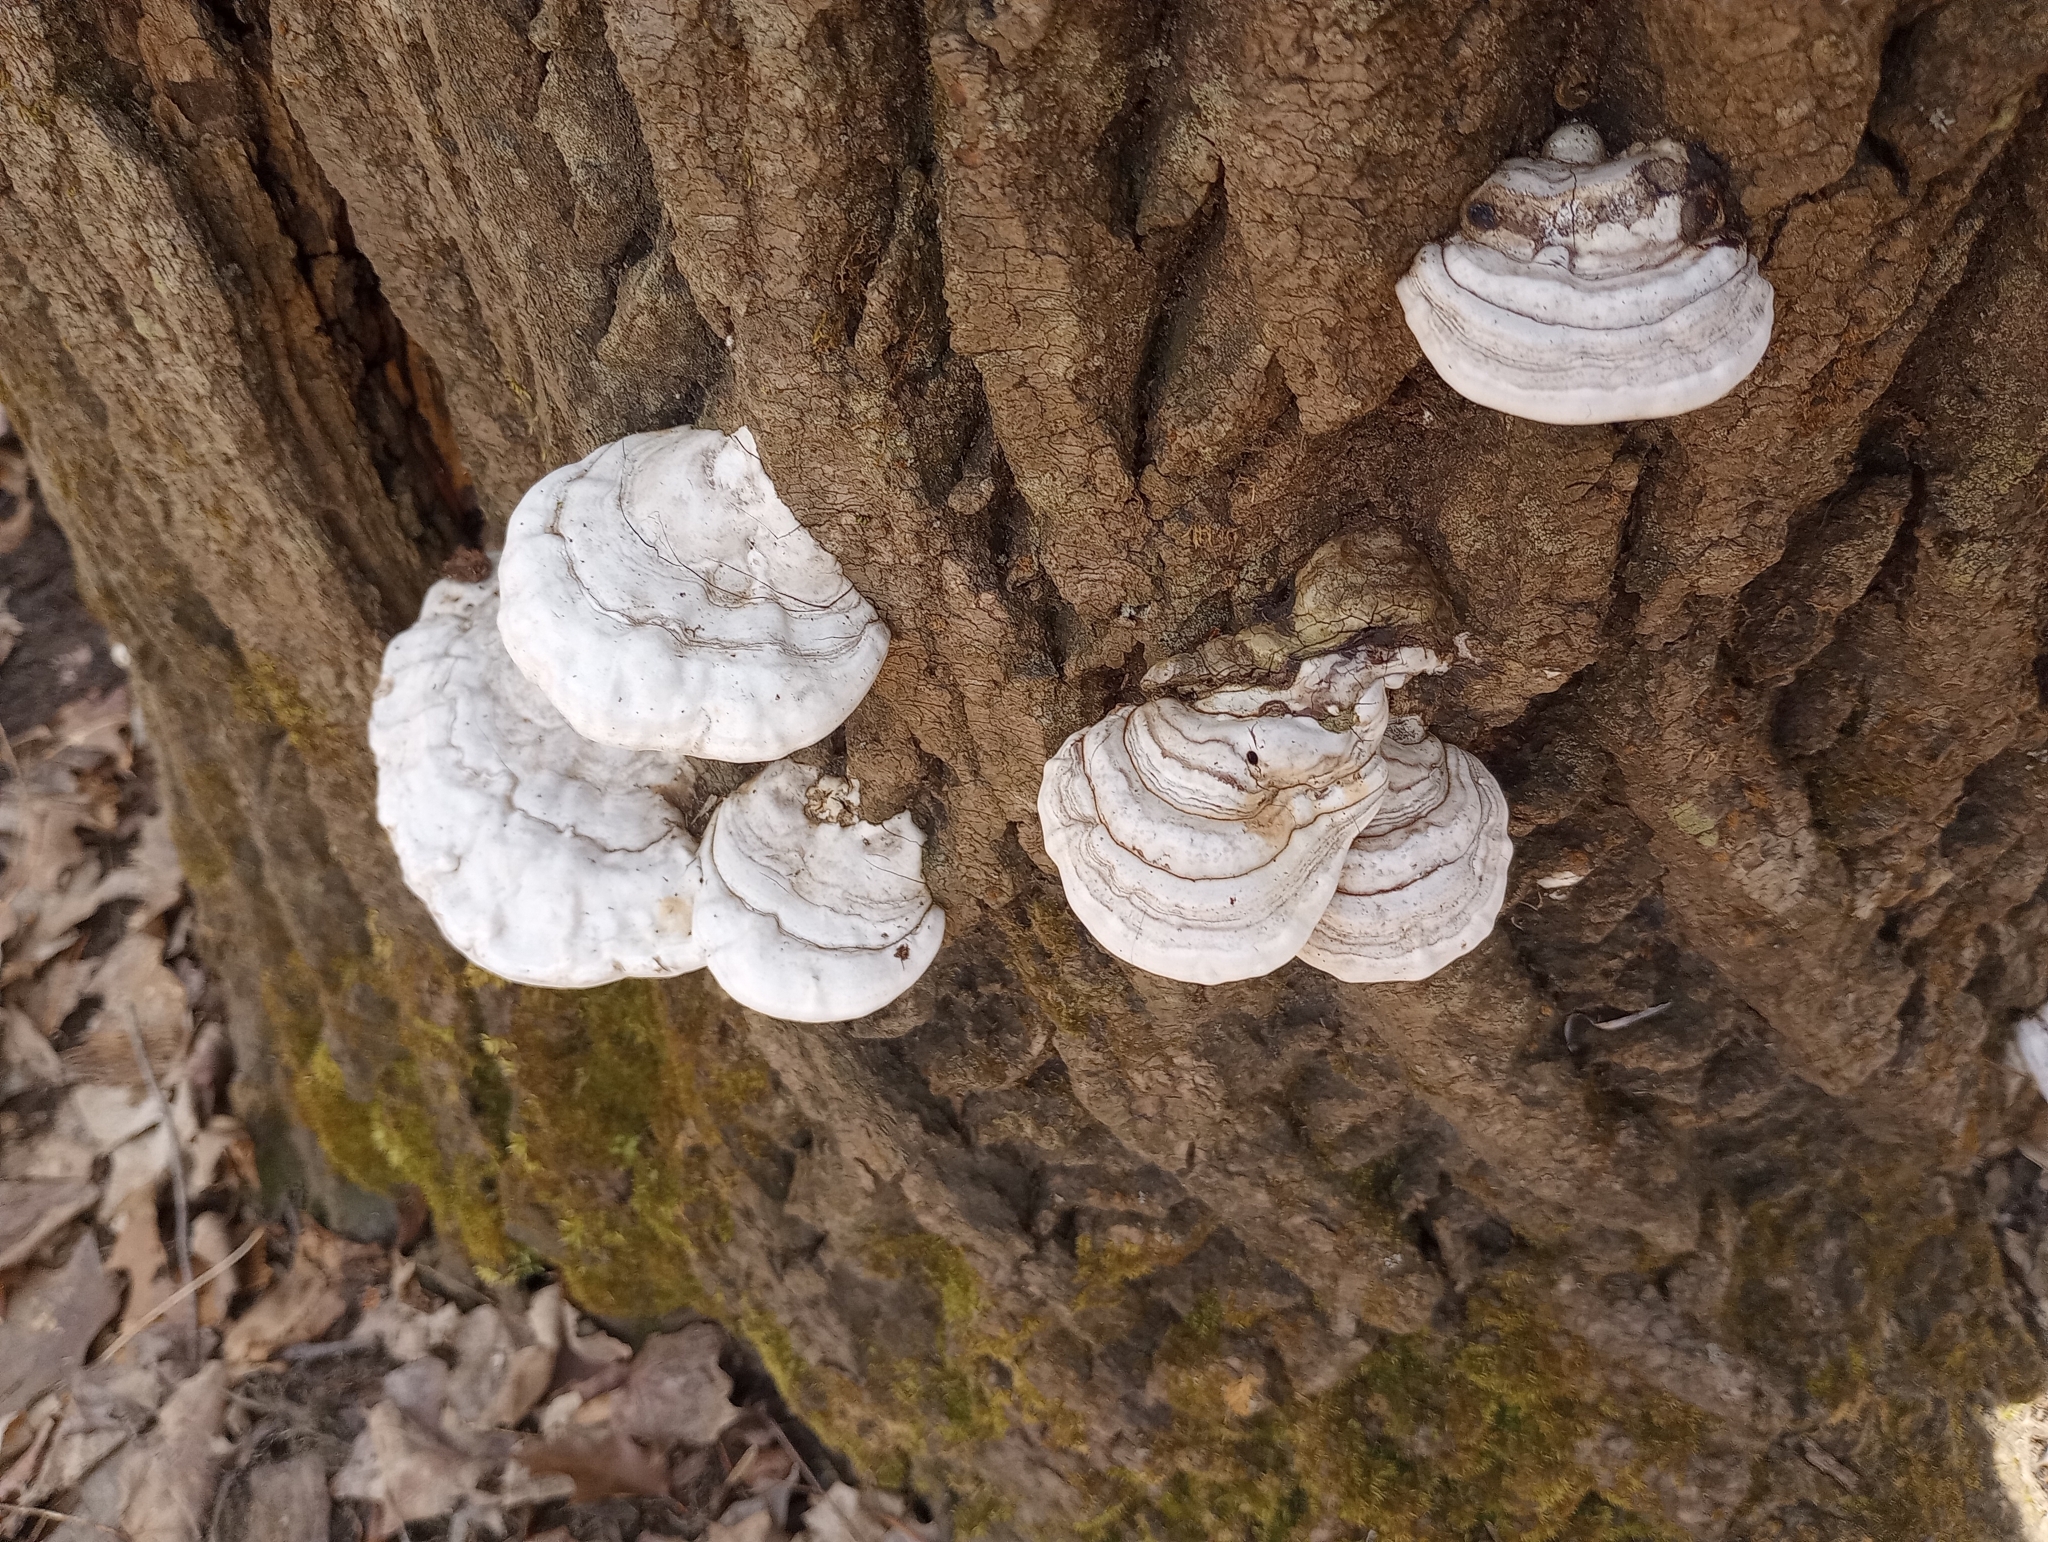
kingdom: Fungi
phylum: Basidiomycota
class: Agaricomycetes
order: Polyporales
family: Polyporaceae
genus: Ganoderma
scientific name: Ganoderma applanatum
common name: Artist's bracket
